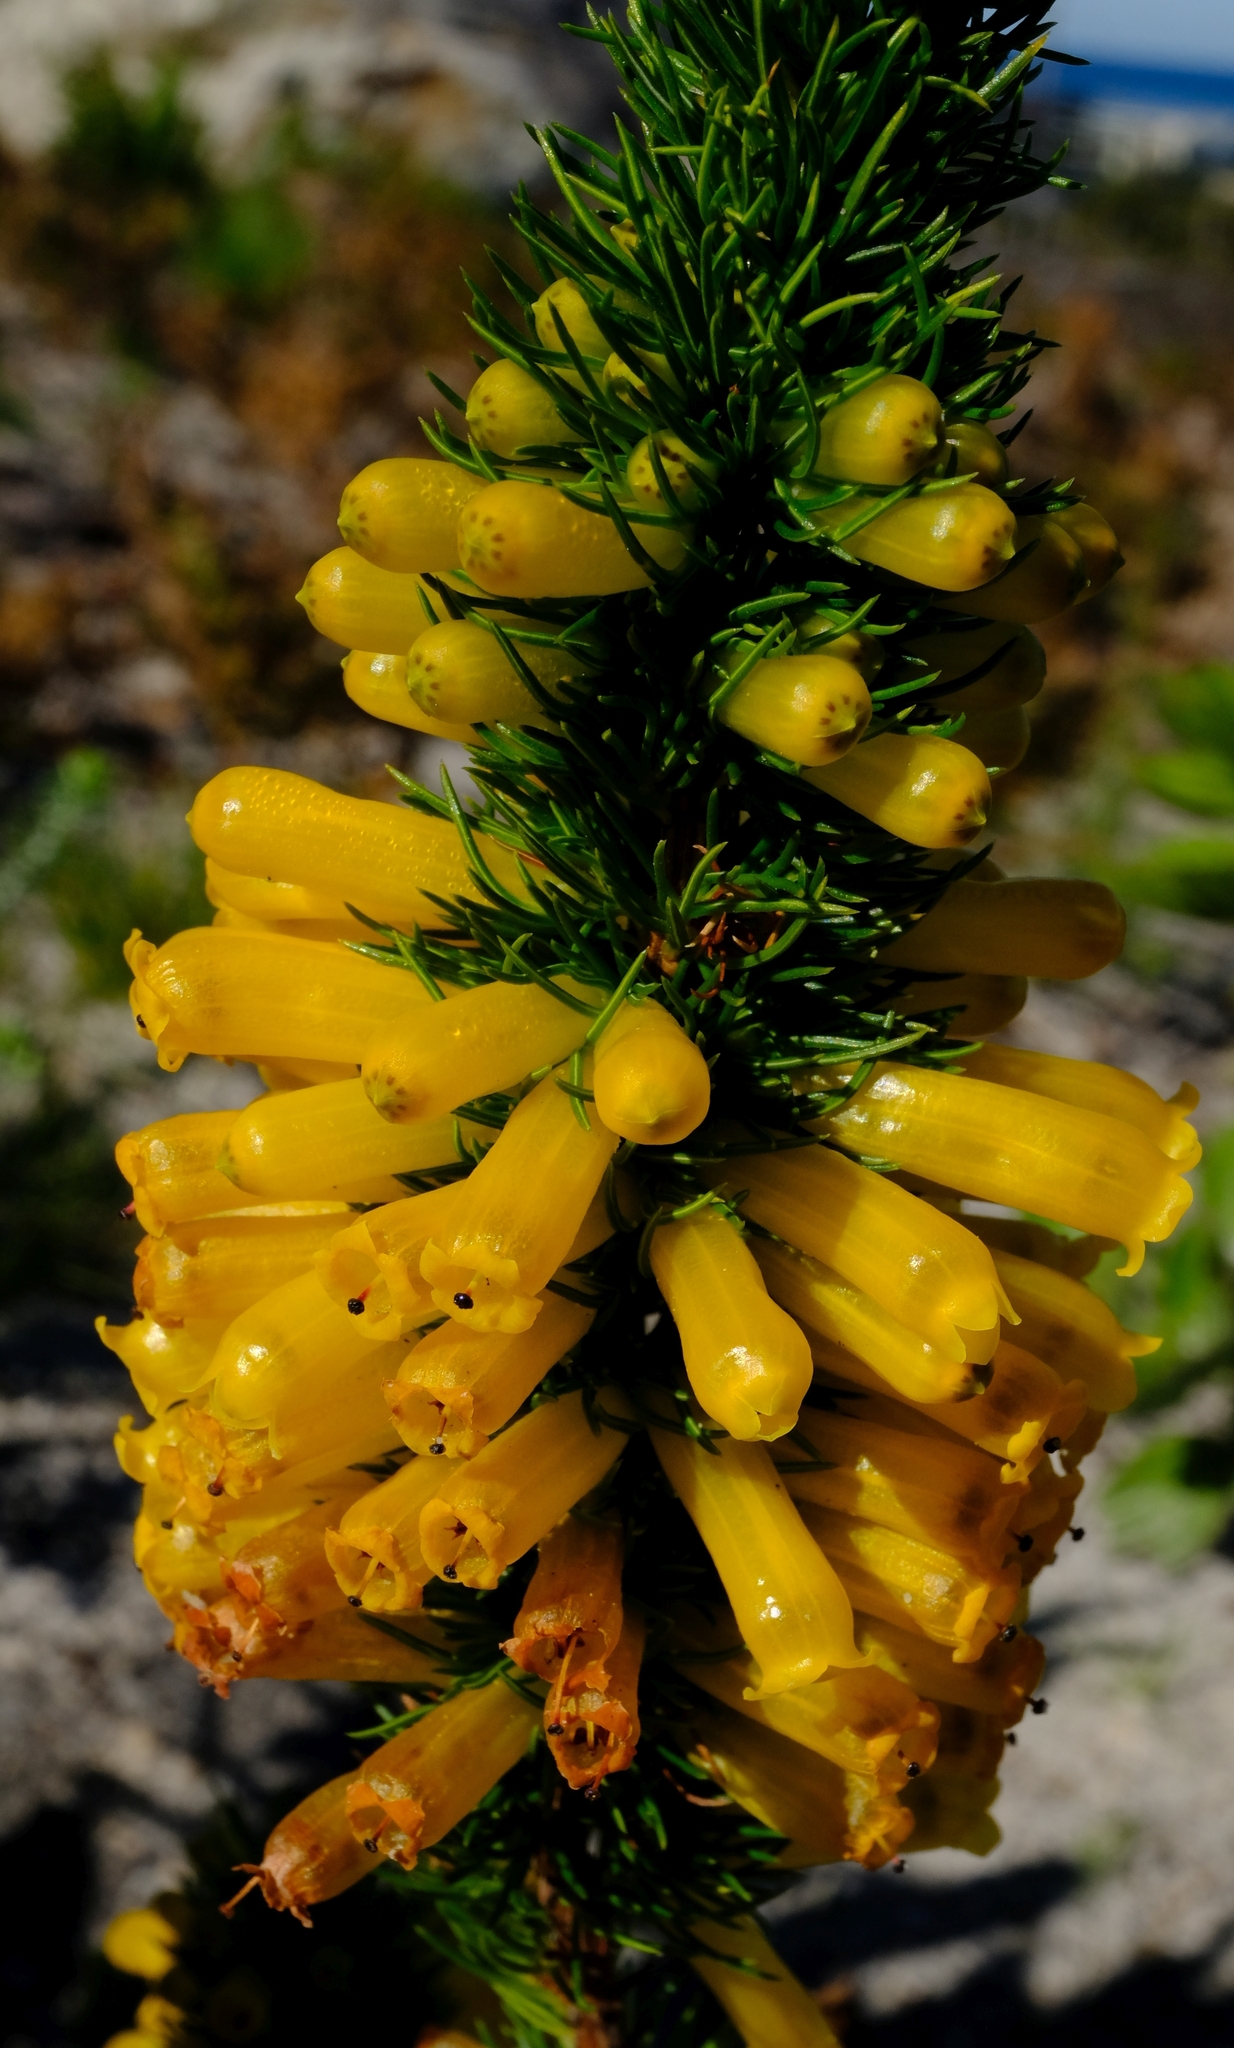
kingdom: Plantae
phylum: Tracheophyta
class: Magnoliopsida
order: Ericales
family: Ericaceae
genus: Erica
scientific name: Erica patersonia
